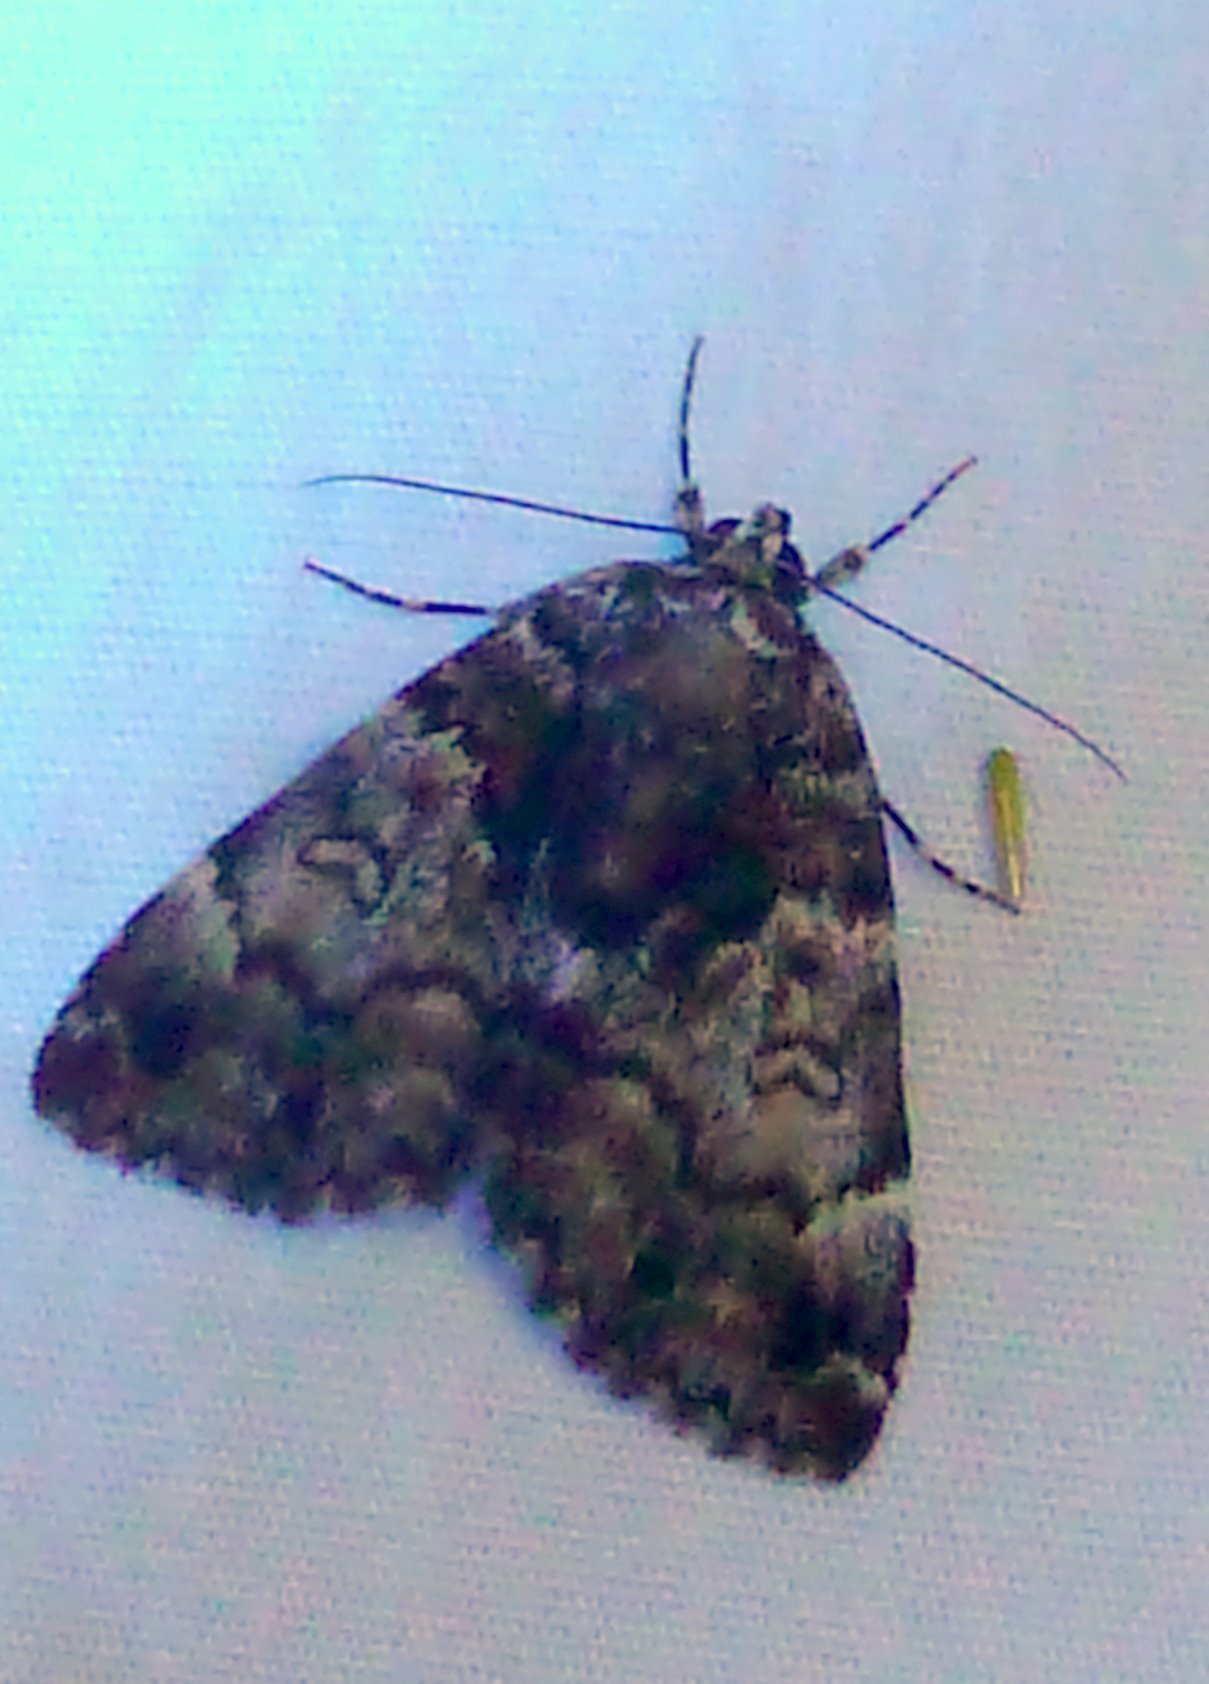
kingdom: Animalia
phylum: Arthropoda
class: Insecta
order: Lepidoptera
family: Erebidae
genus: Allotria
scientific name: Allotria elonympha
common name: False underwing
